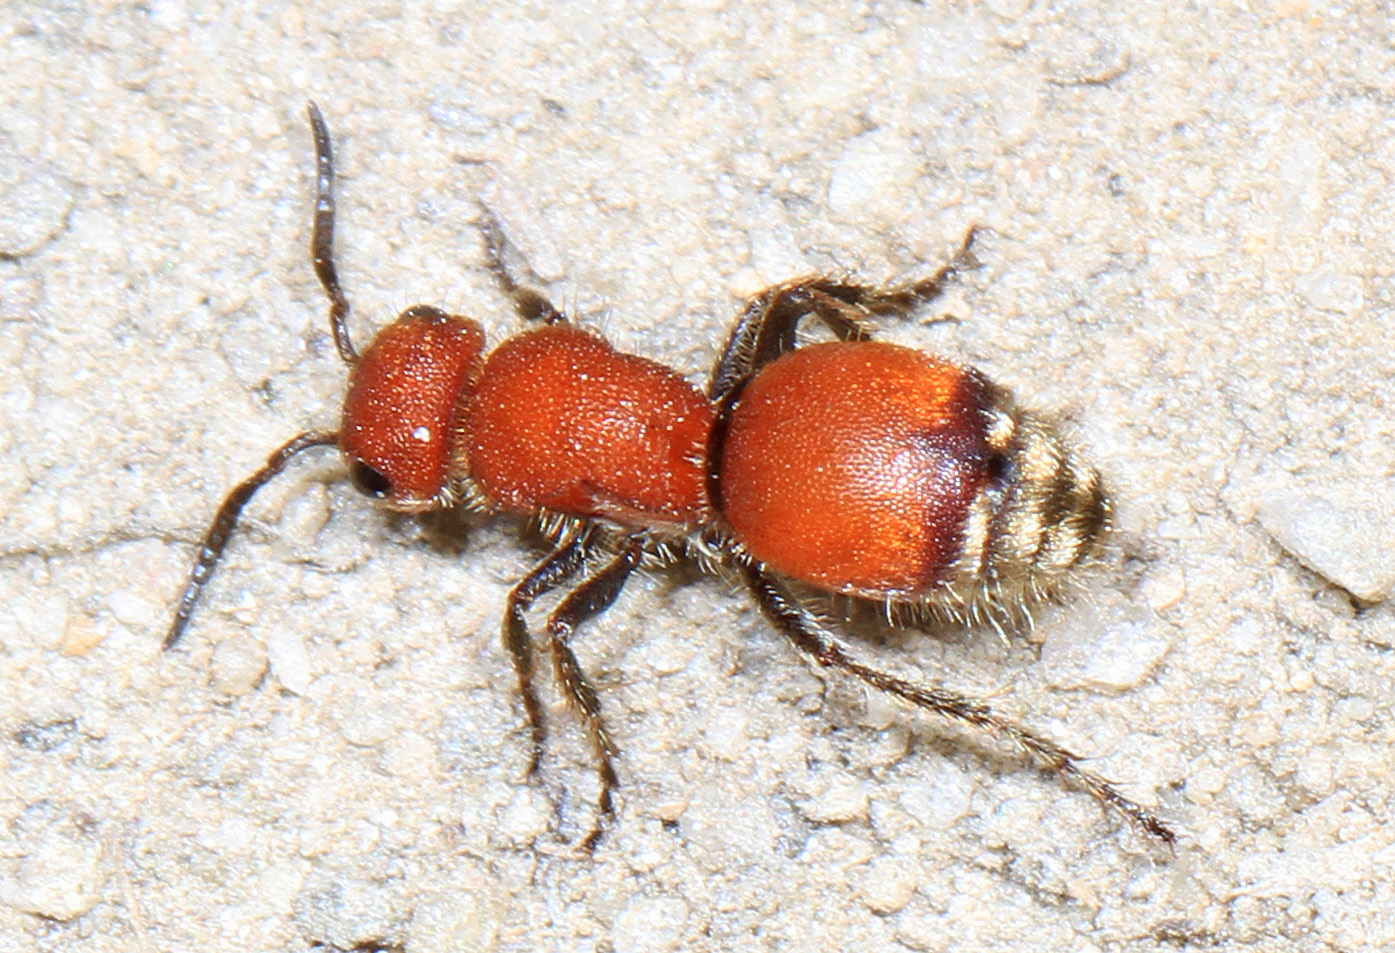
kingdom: Animalia
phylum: Arthropoda
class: Insecta
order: Hymenoptera
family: Mutillidae
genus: Pseudomethoca
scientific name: Pseudomethoca sanbornii
